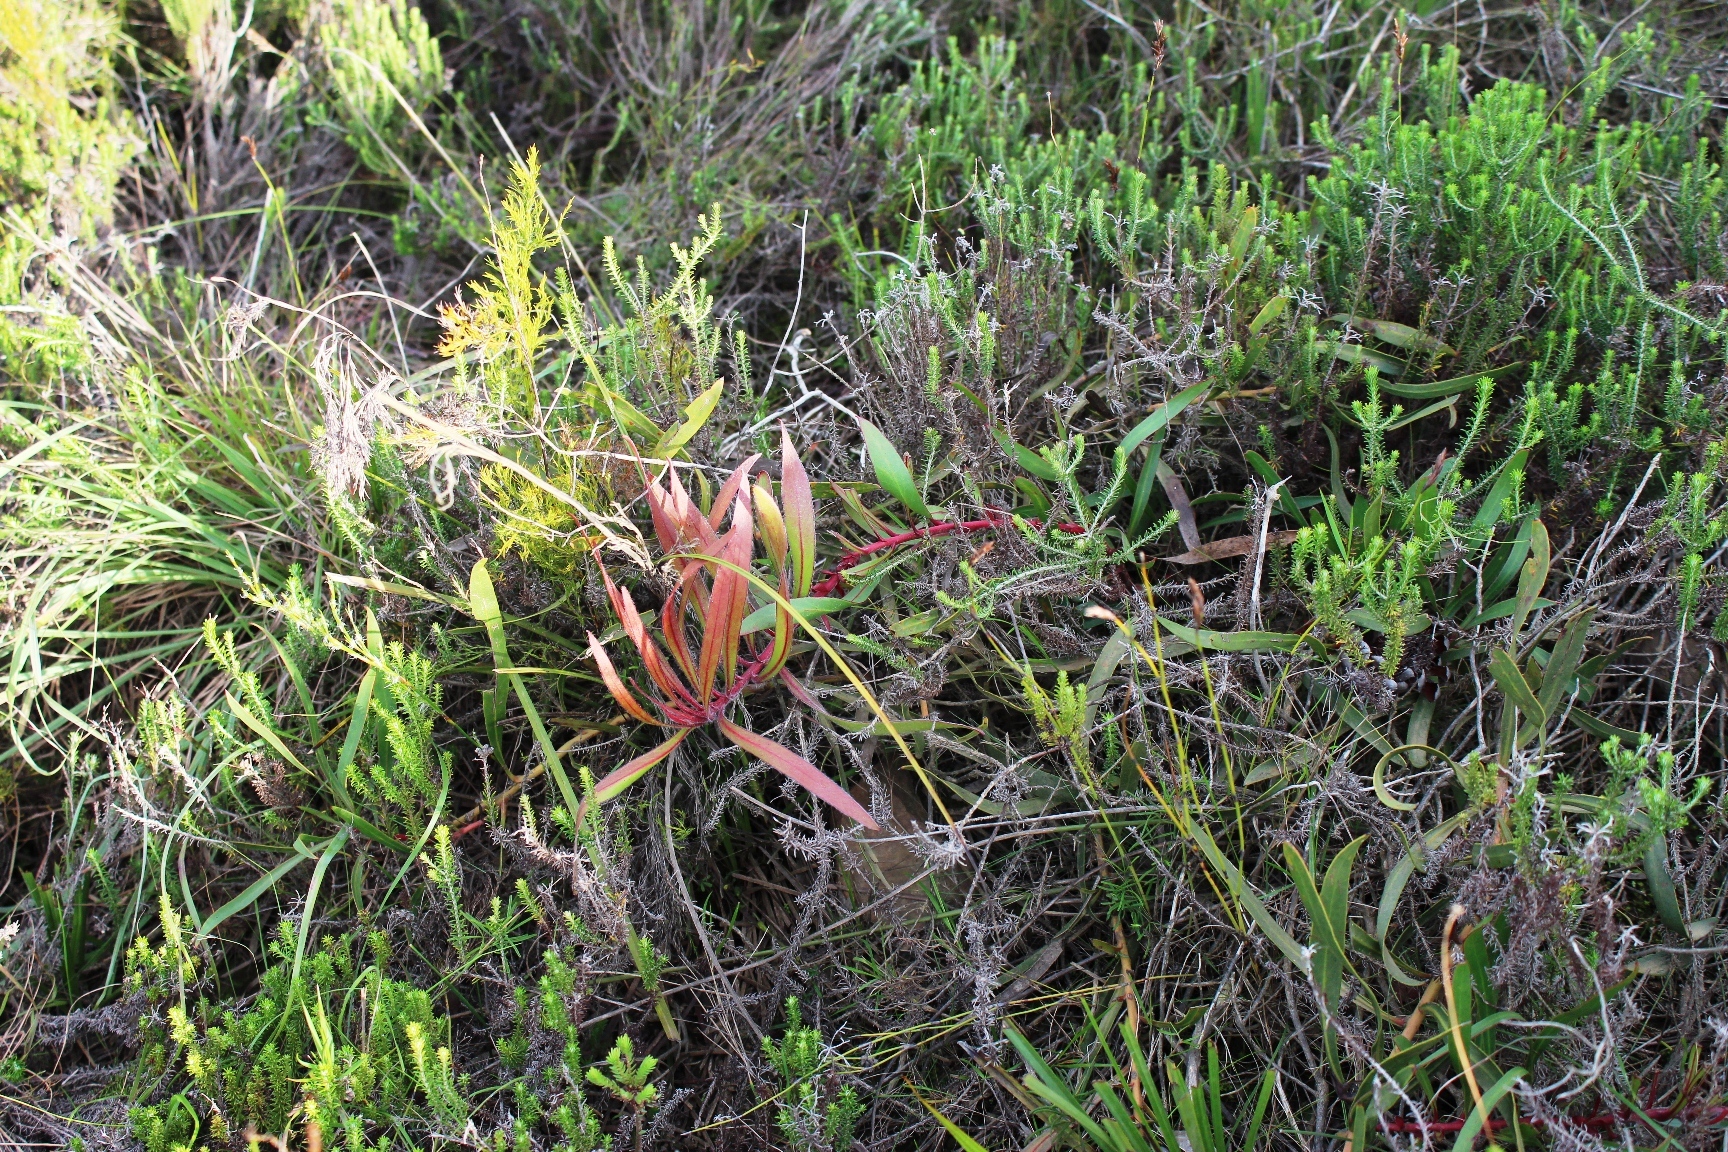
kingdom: Plantae
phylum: Tracheophyta
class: Magnoliopsida
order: Proteales
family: Proteaceae
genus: Protea
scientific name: Protea tenax
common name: Tenacious sugarbush
